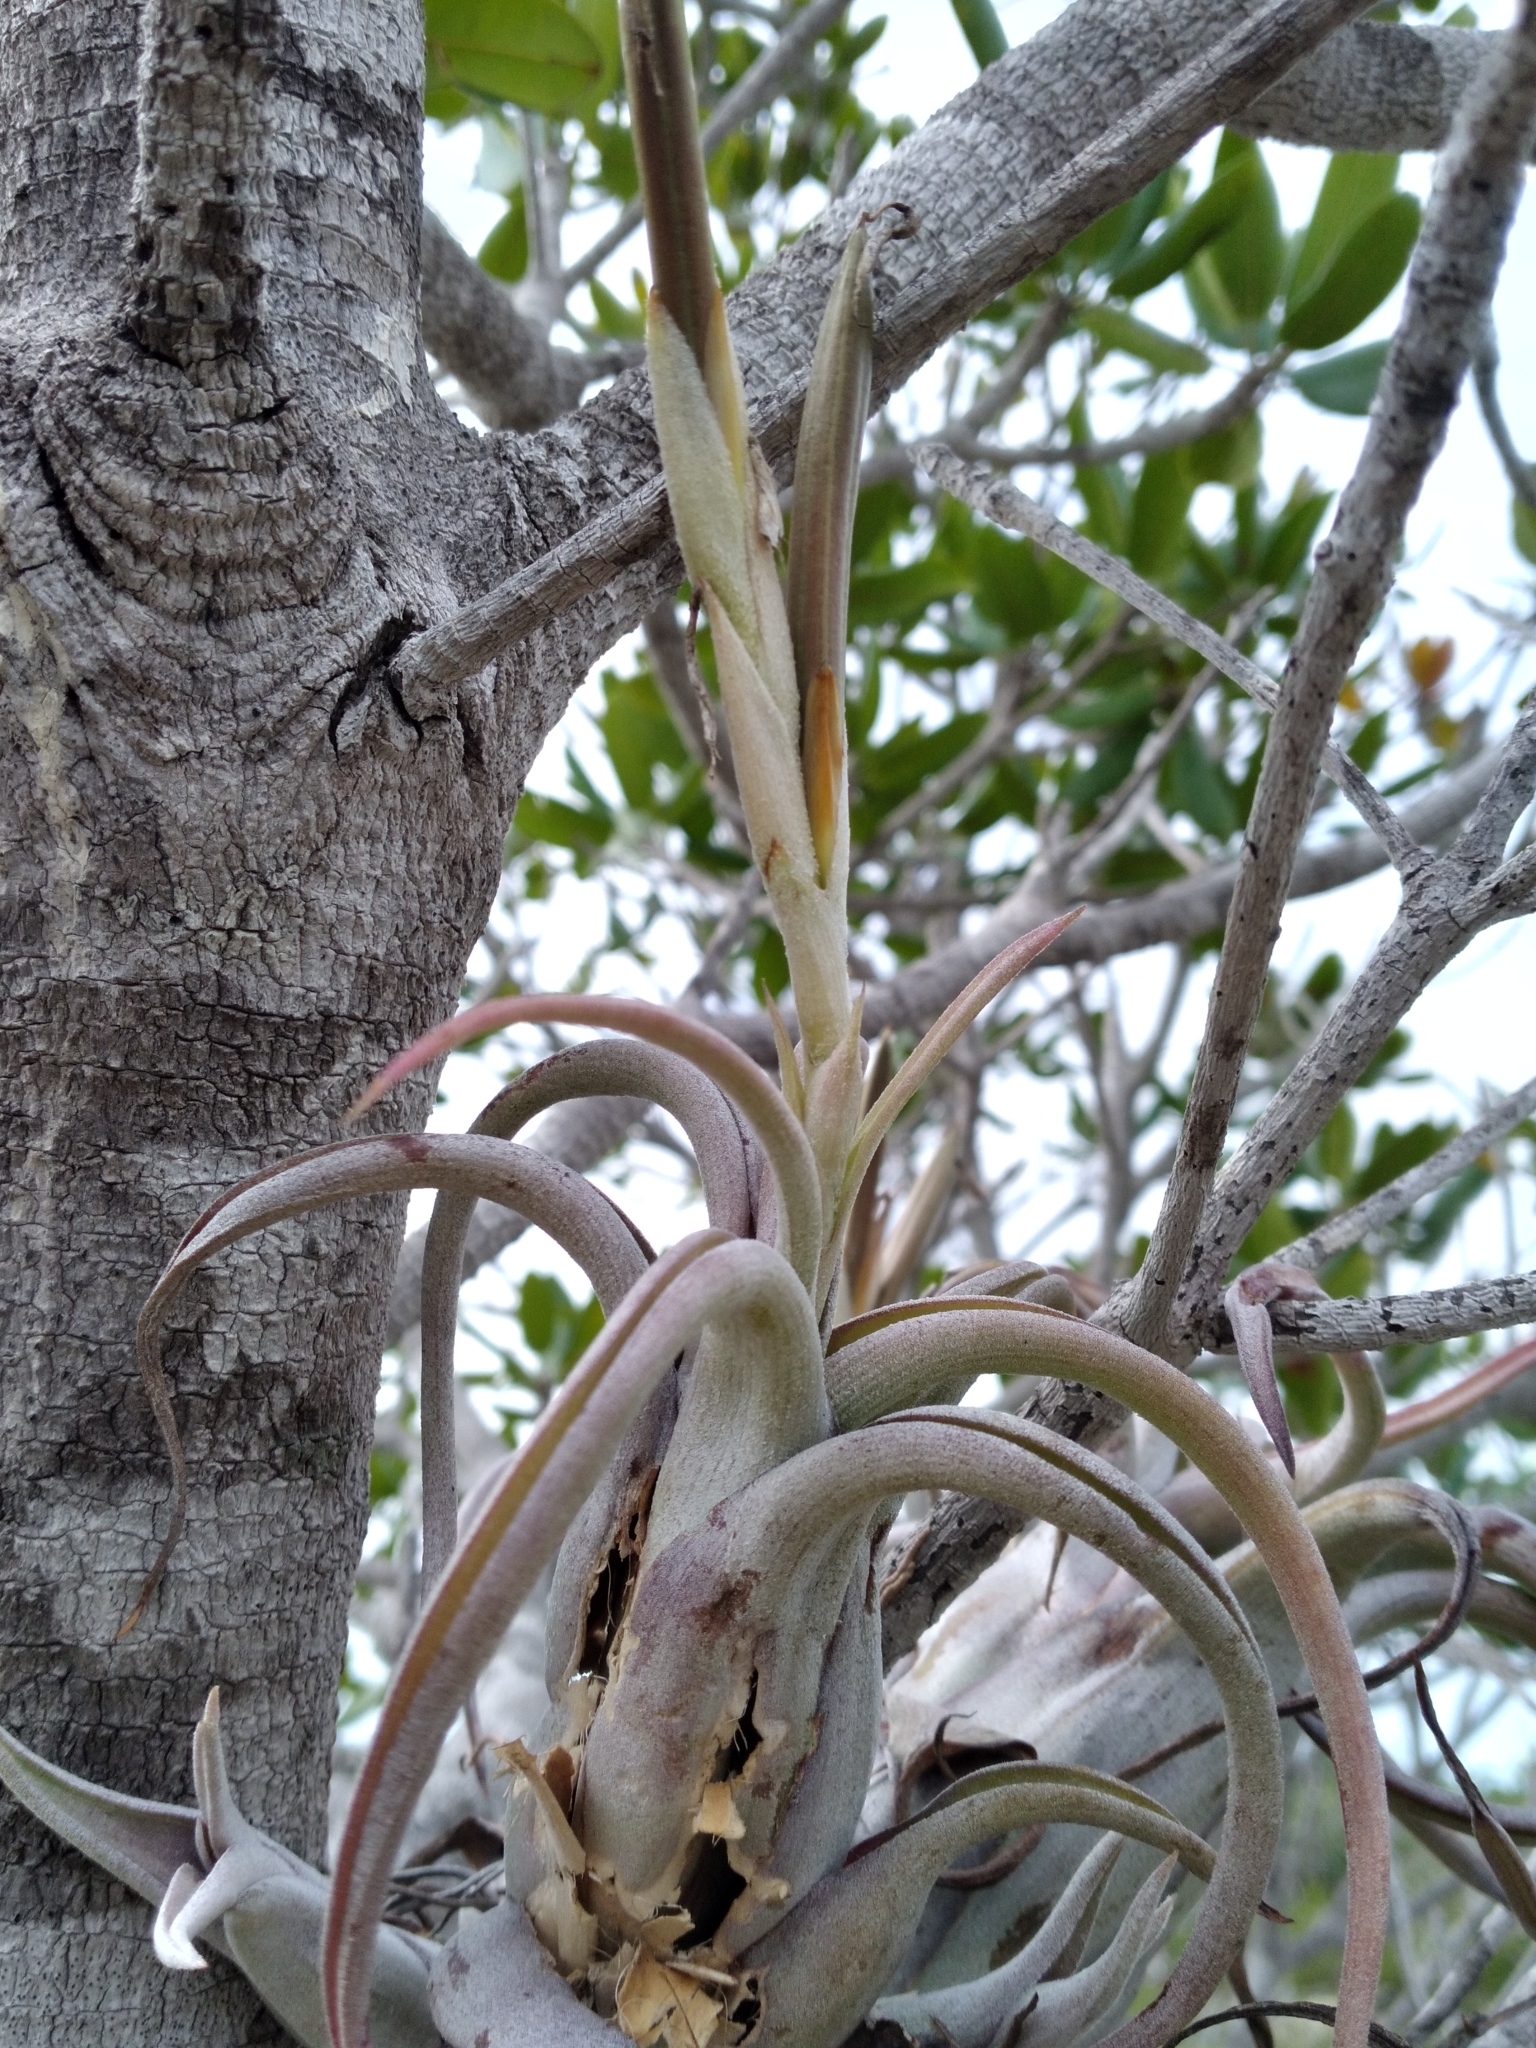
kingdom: Plantae
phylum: Tracheophyta
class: Liliopsida
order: Poales
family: Bromeliaceae
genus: Tillandsia
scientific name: Tillandsia paucifolia
